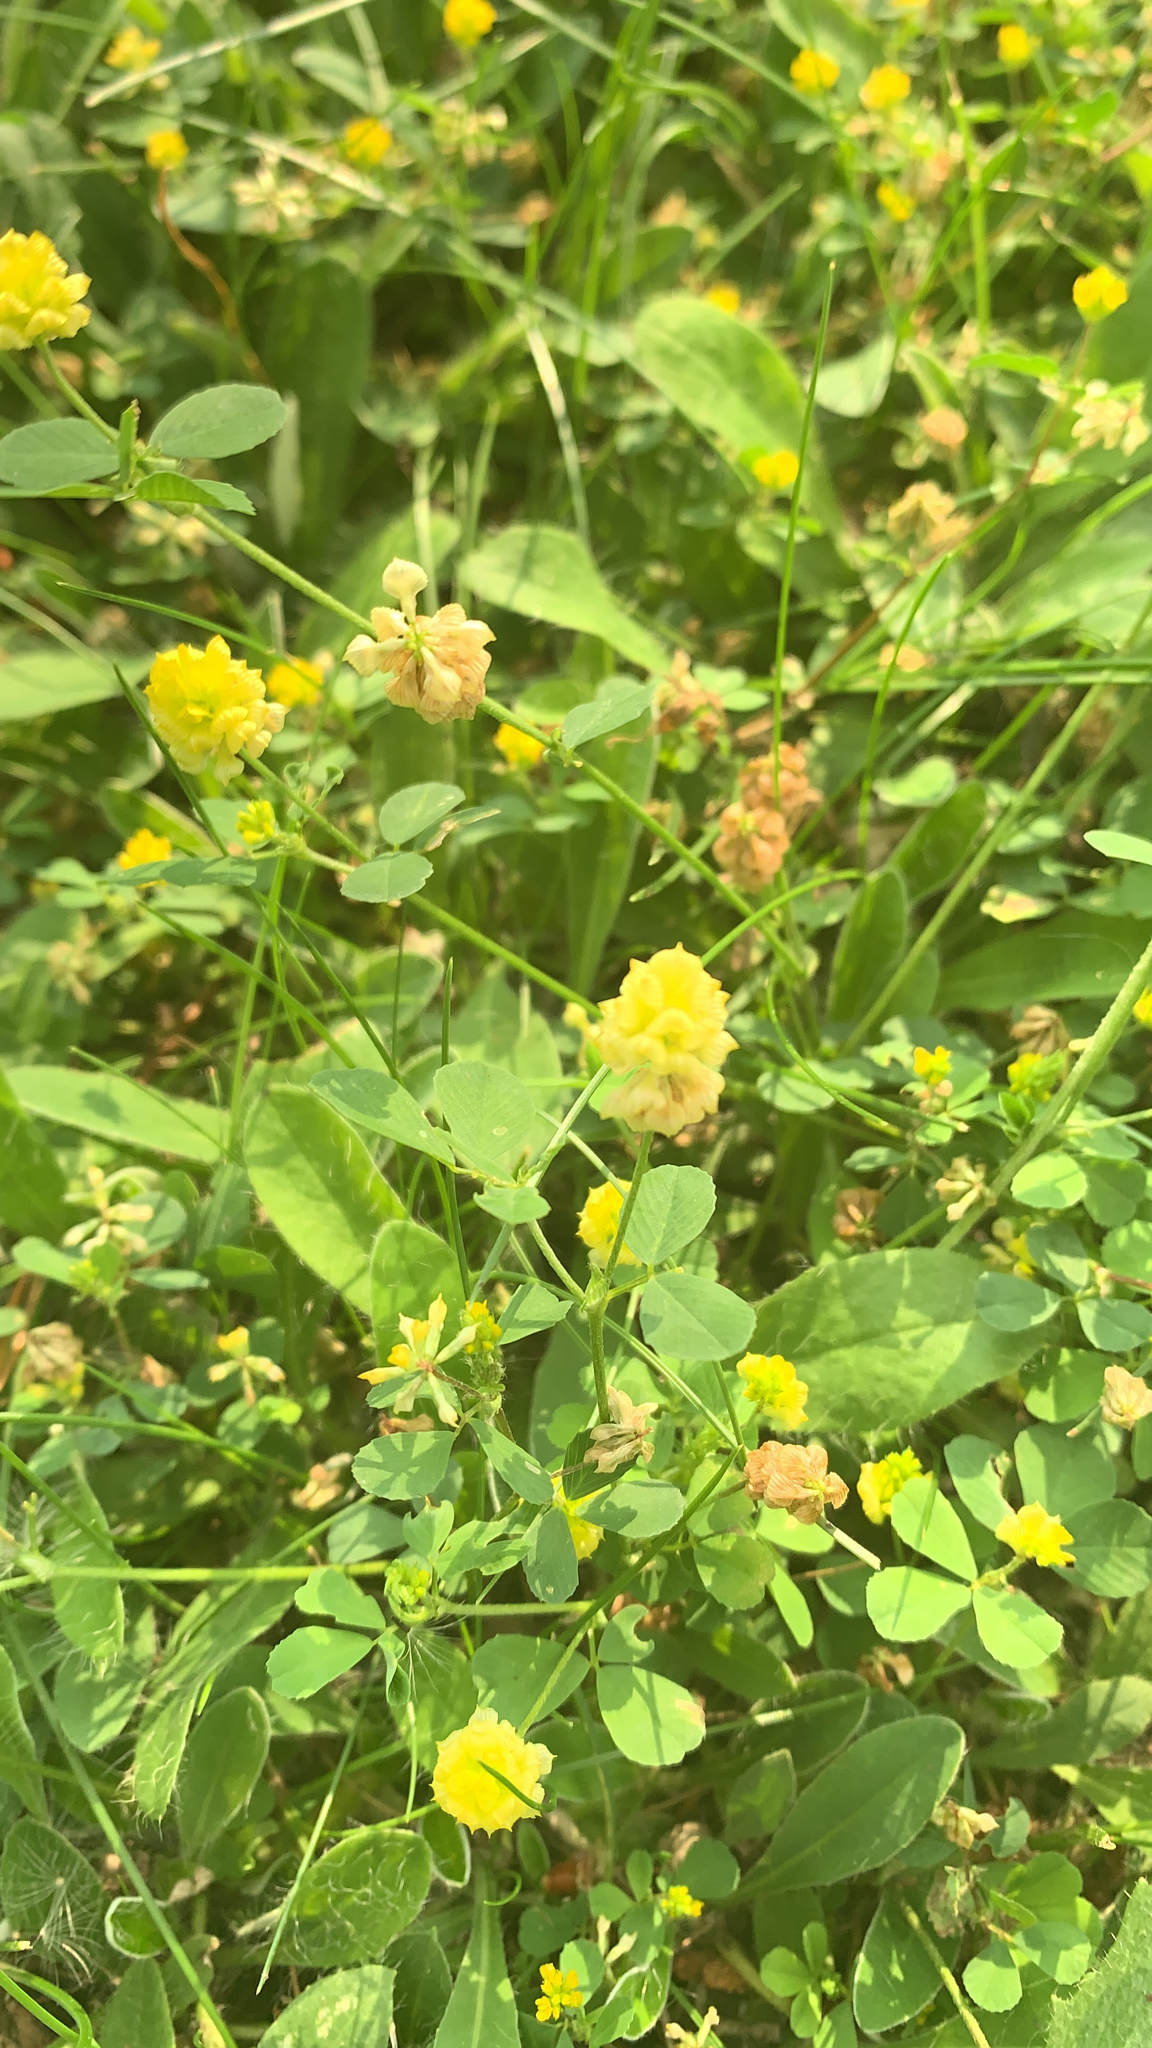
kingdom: Plantae
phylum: Tracheophyta
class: Magnoliopsida
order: Fabales
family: Fabaceae
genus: Trifolium
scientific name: Trifolium campestre
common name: Field clover
